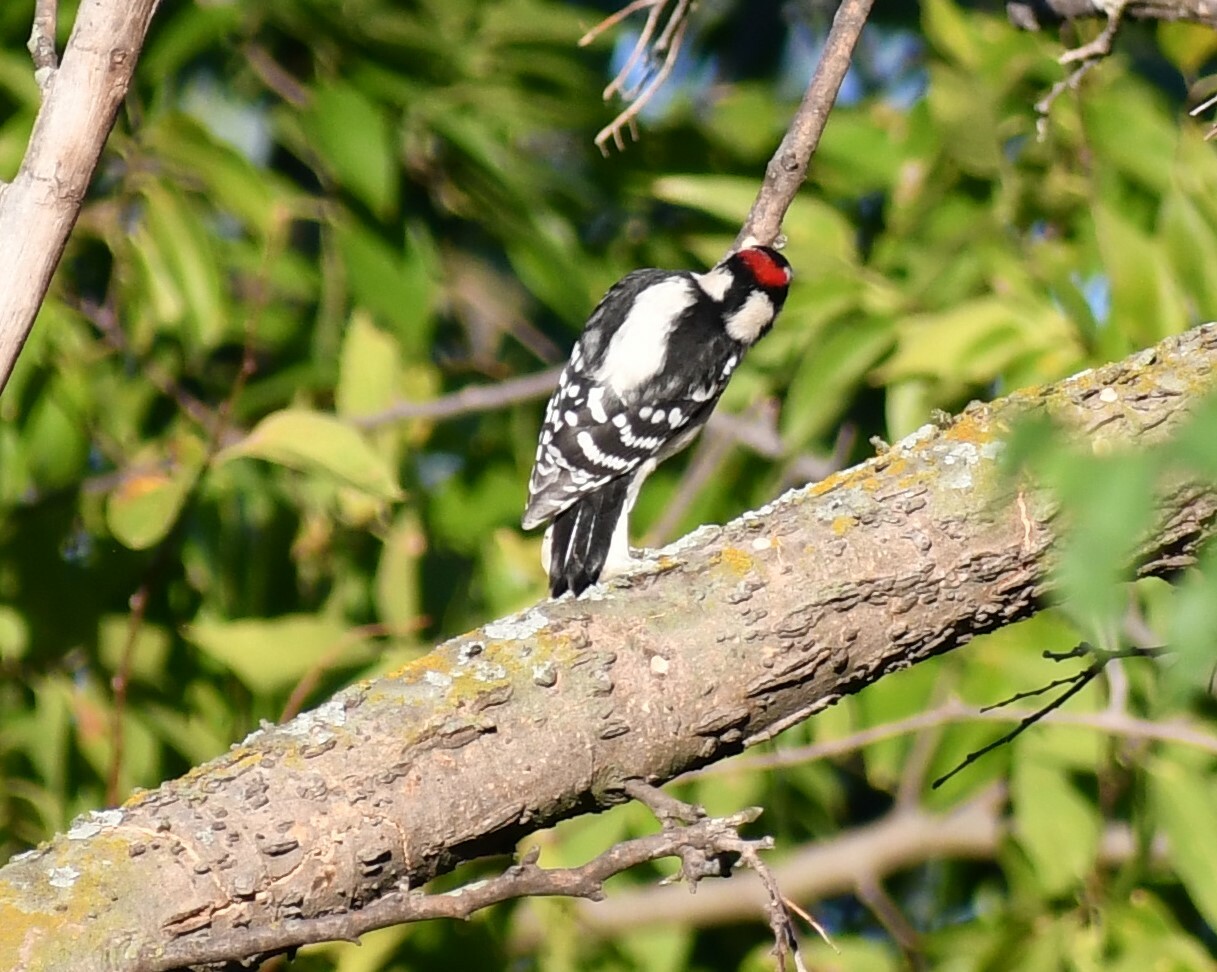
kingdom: Animalia
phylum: Chordata
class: Aves
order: Piciformes
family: Picidae
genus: Dryobates
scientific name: Dryobates pubescens
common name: Downy woodpecker
